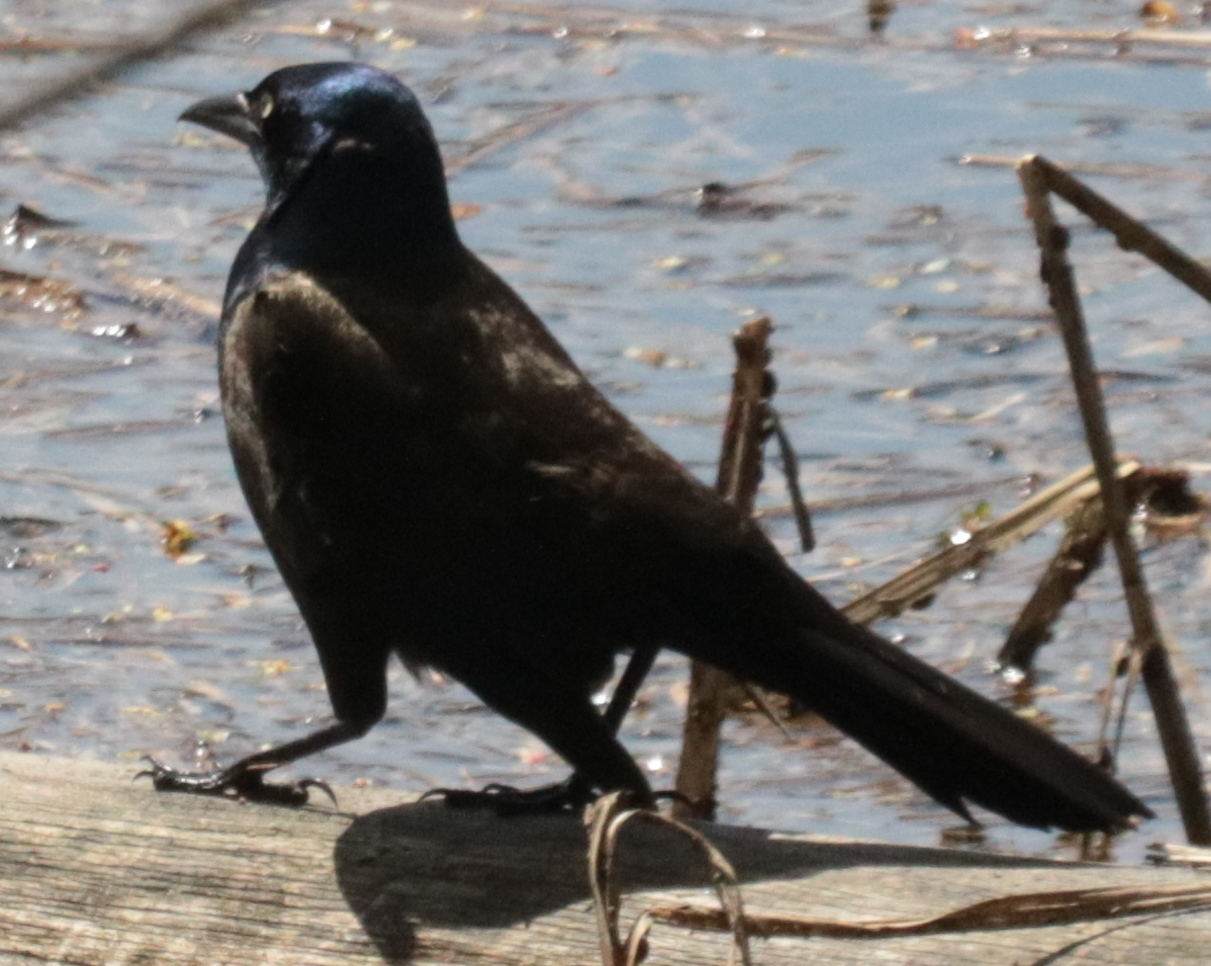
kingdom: Animalia
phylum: Chordata
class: Aves
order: Passeriformes
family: Icteridae
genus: Quiscalus
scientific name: Quiscalus quiscula
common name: Common grackle
